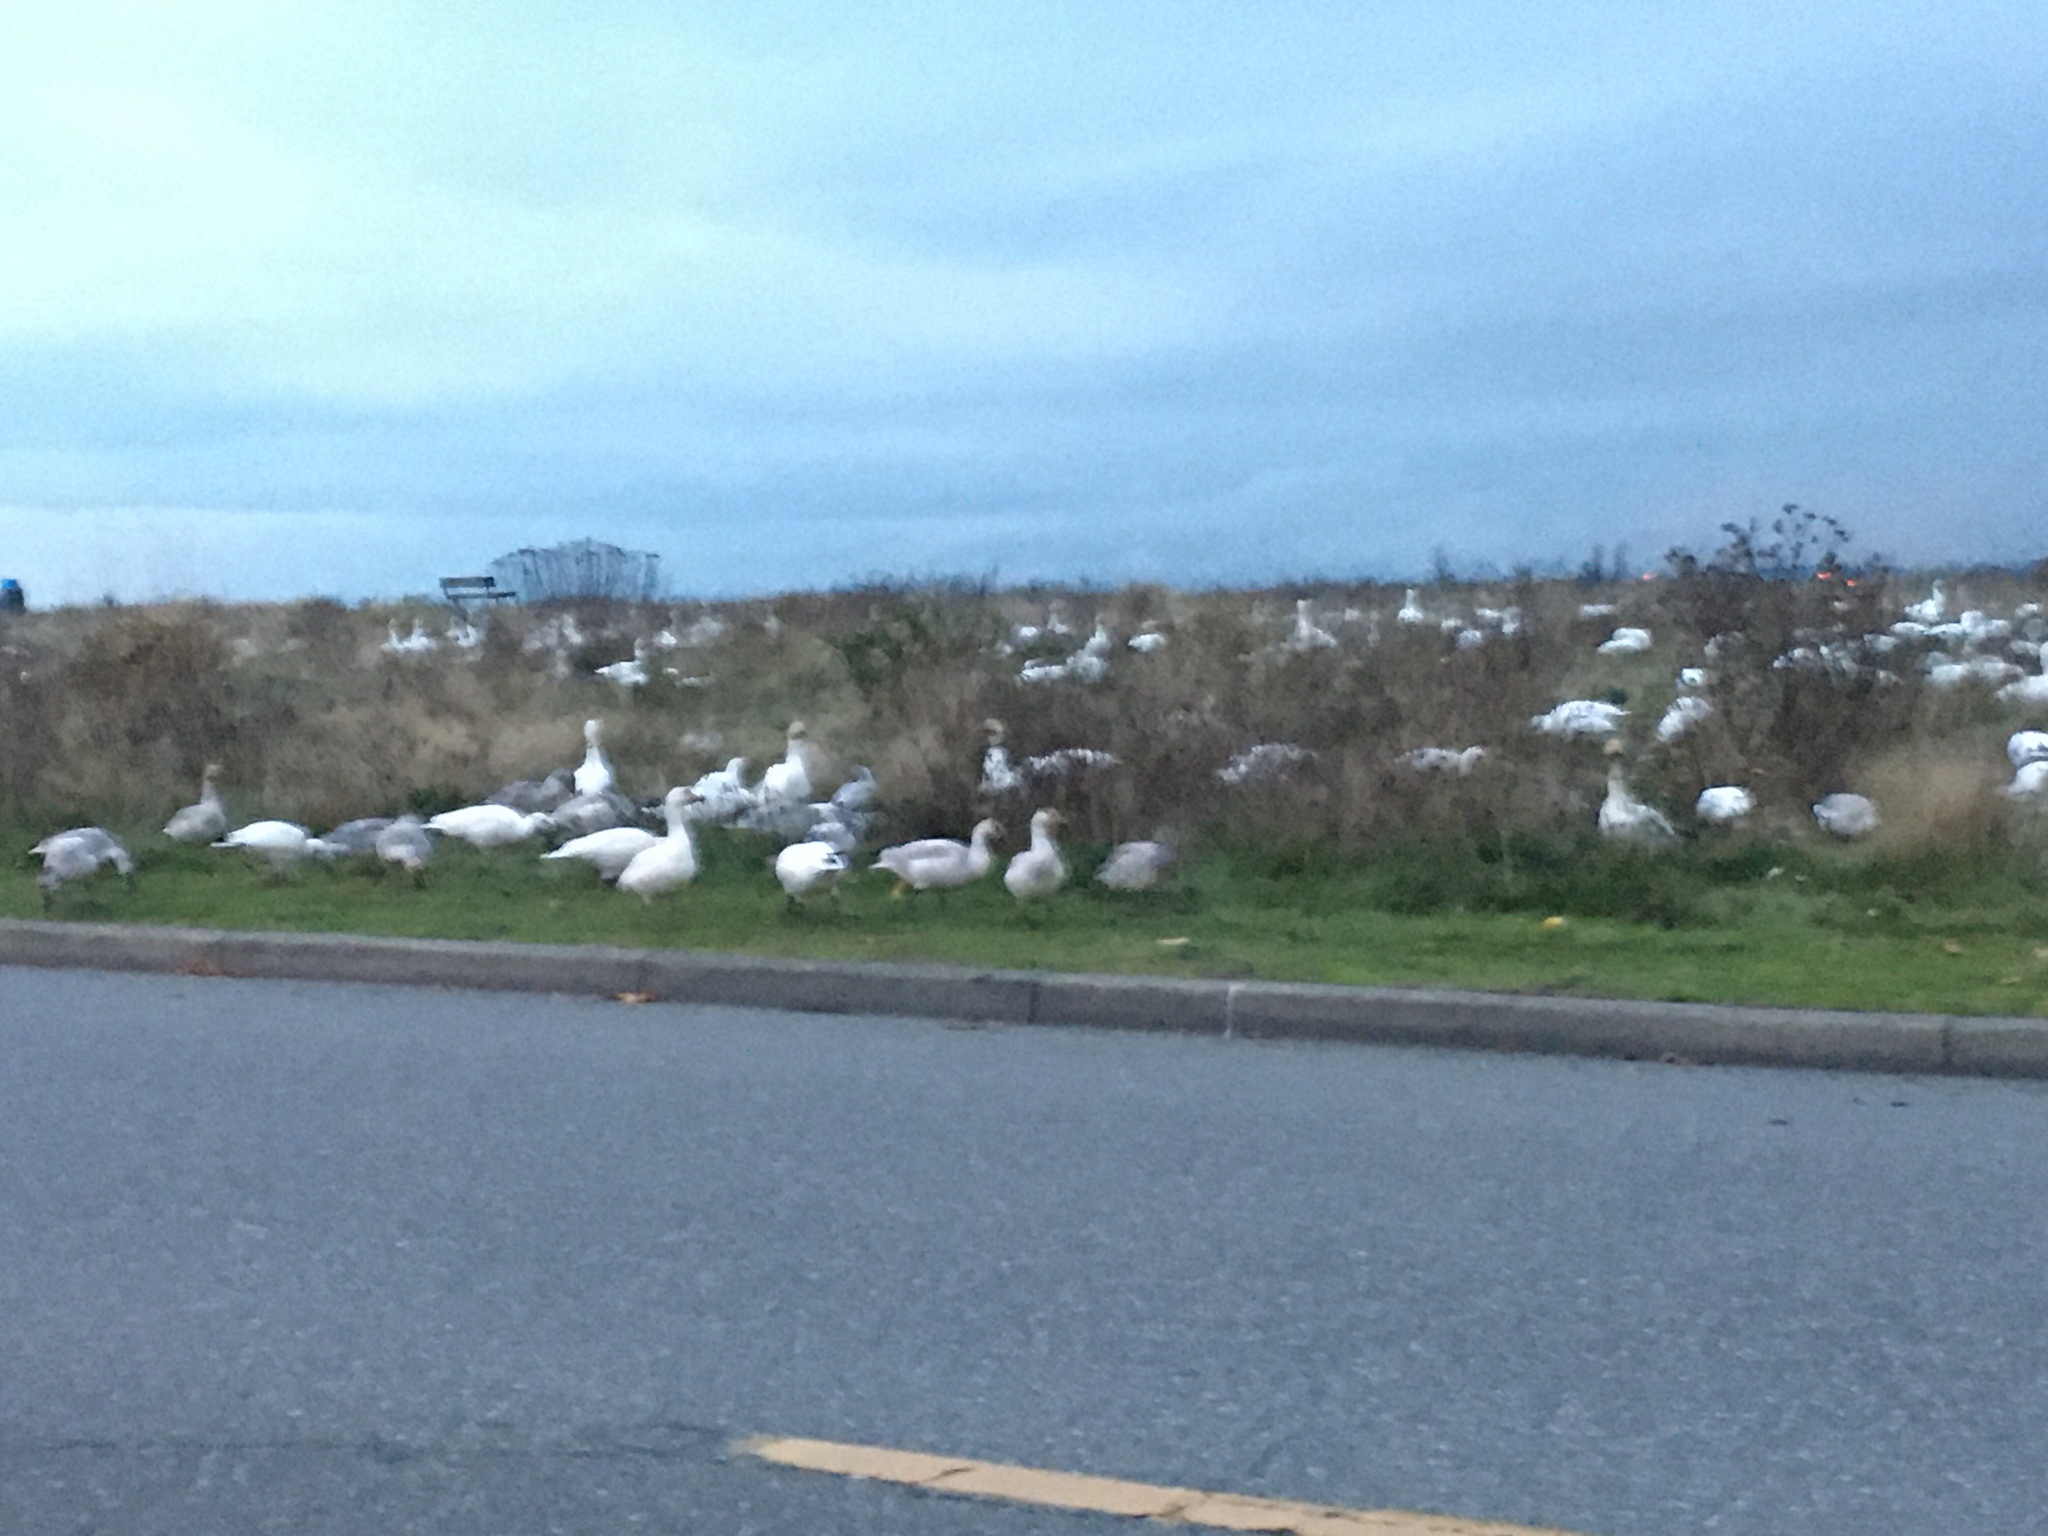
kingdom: Animalia
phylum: Chordata
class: Aves
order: Anseriformes
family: Anatidae
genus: Anser
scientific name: Anser caerulescens
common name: Snow goose
